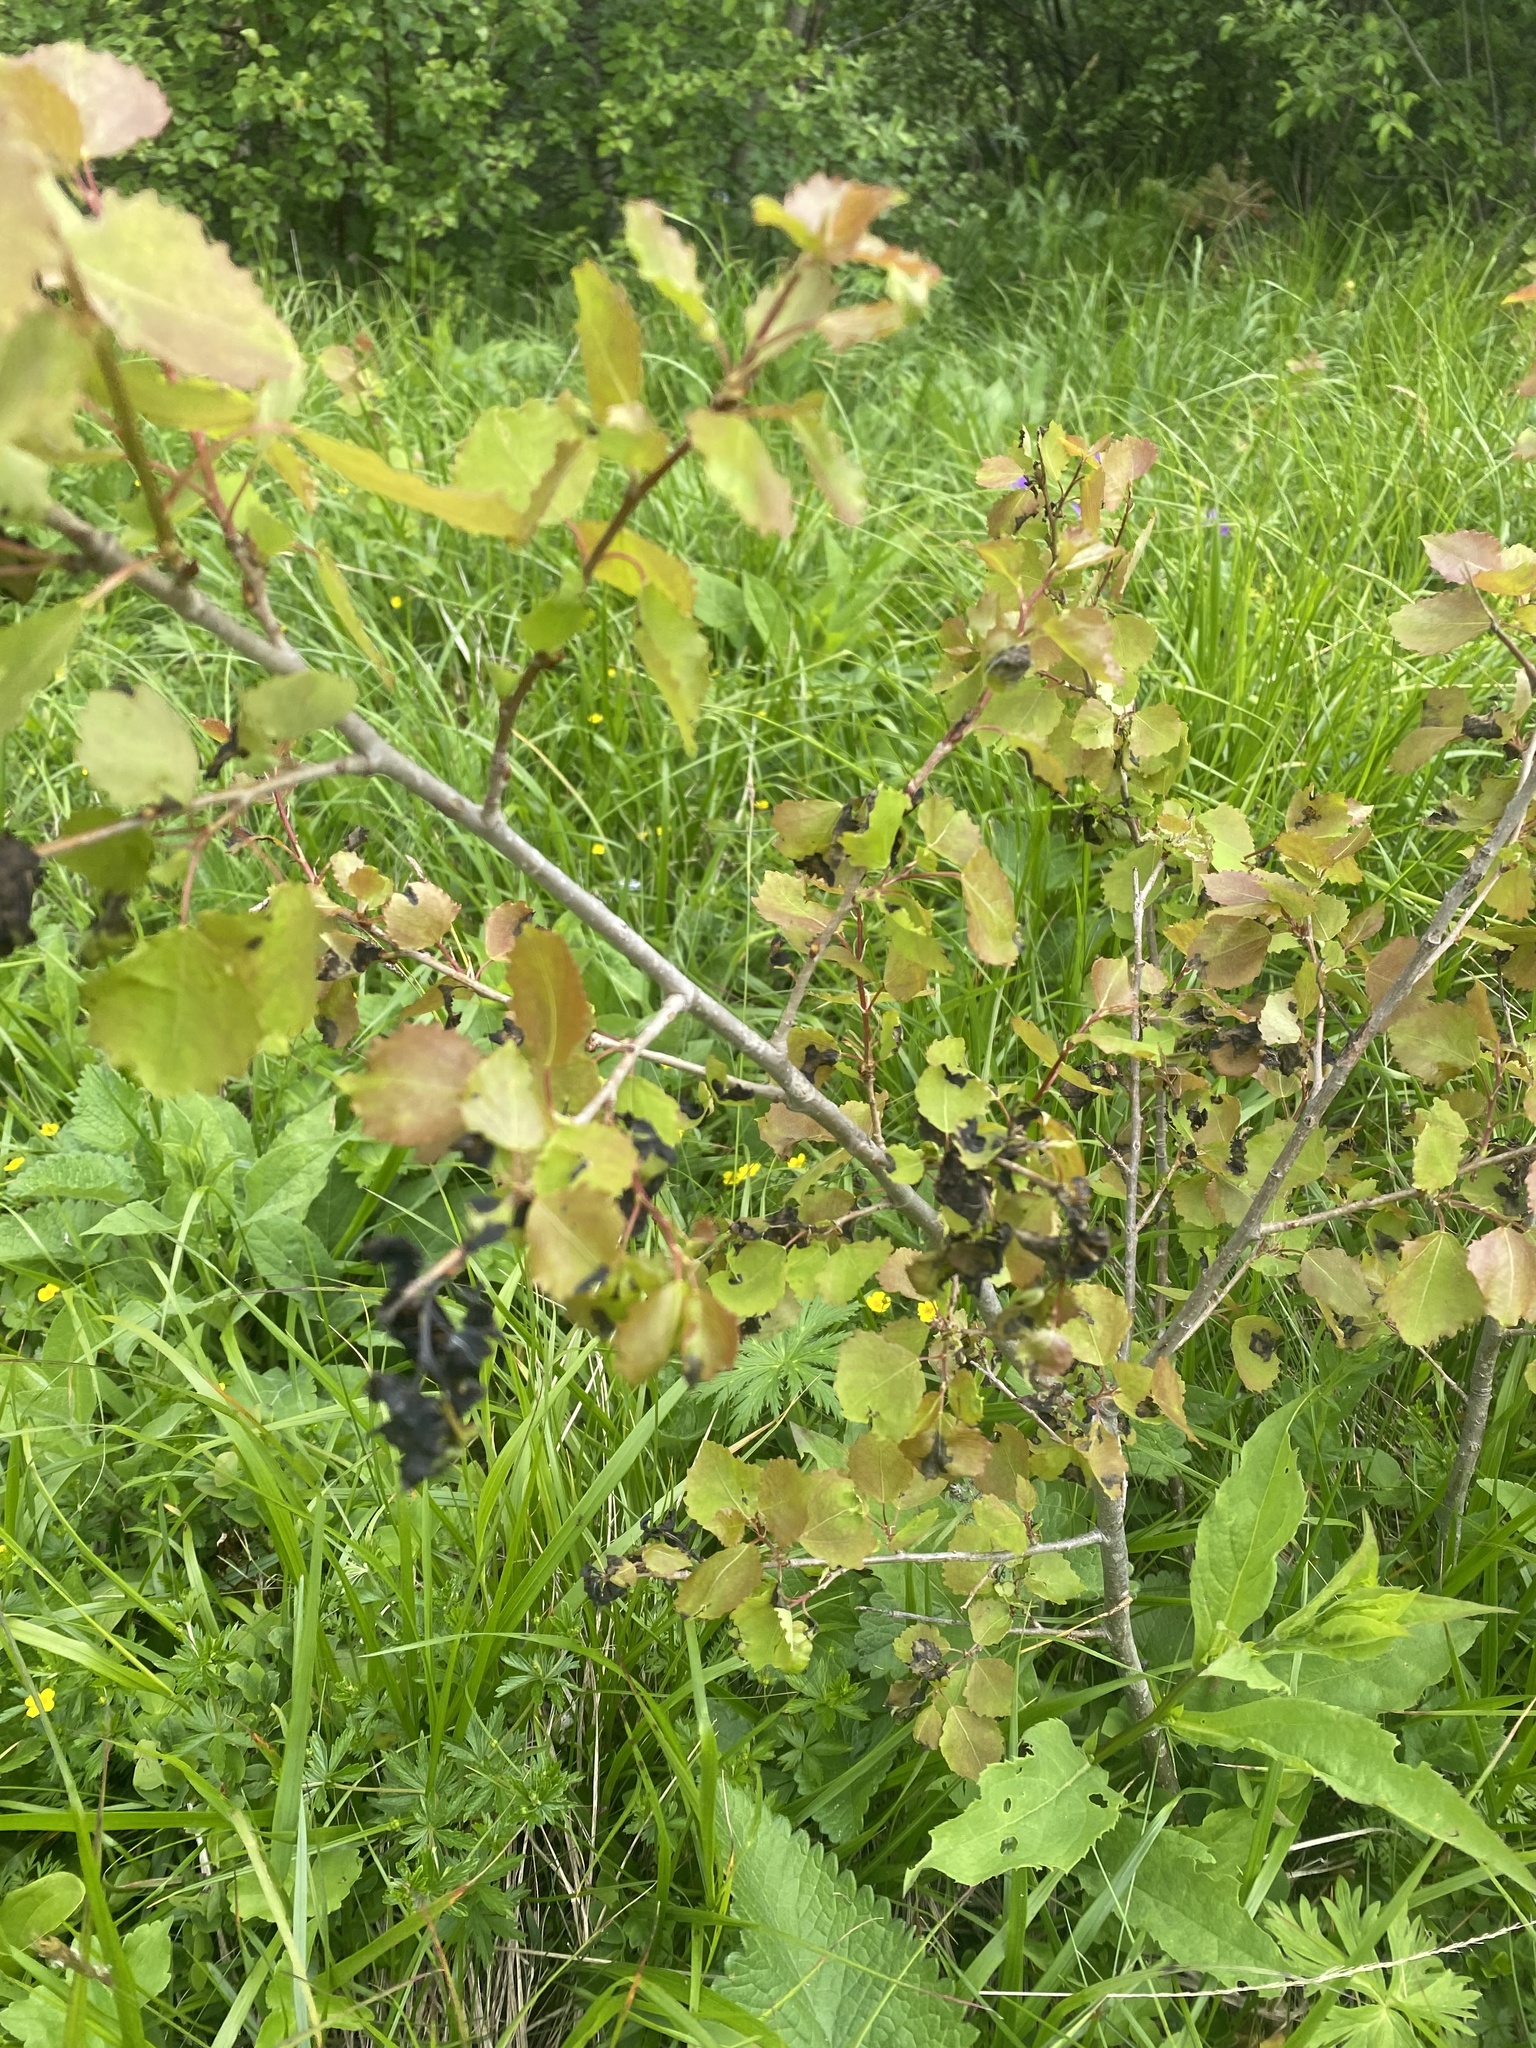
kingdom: Plantae
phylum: Tracheophyta
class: Magnoliopsida
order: Malpighiales
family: Salicaceae
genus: Populus
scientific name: Populus tremula
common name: European aspen
